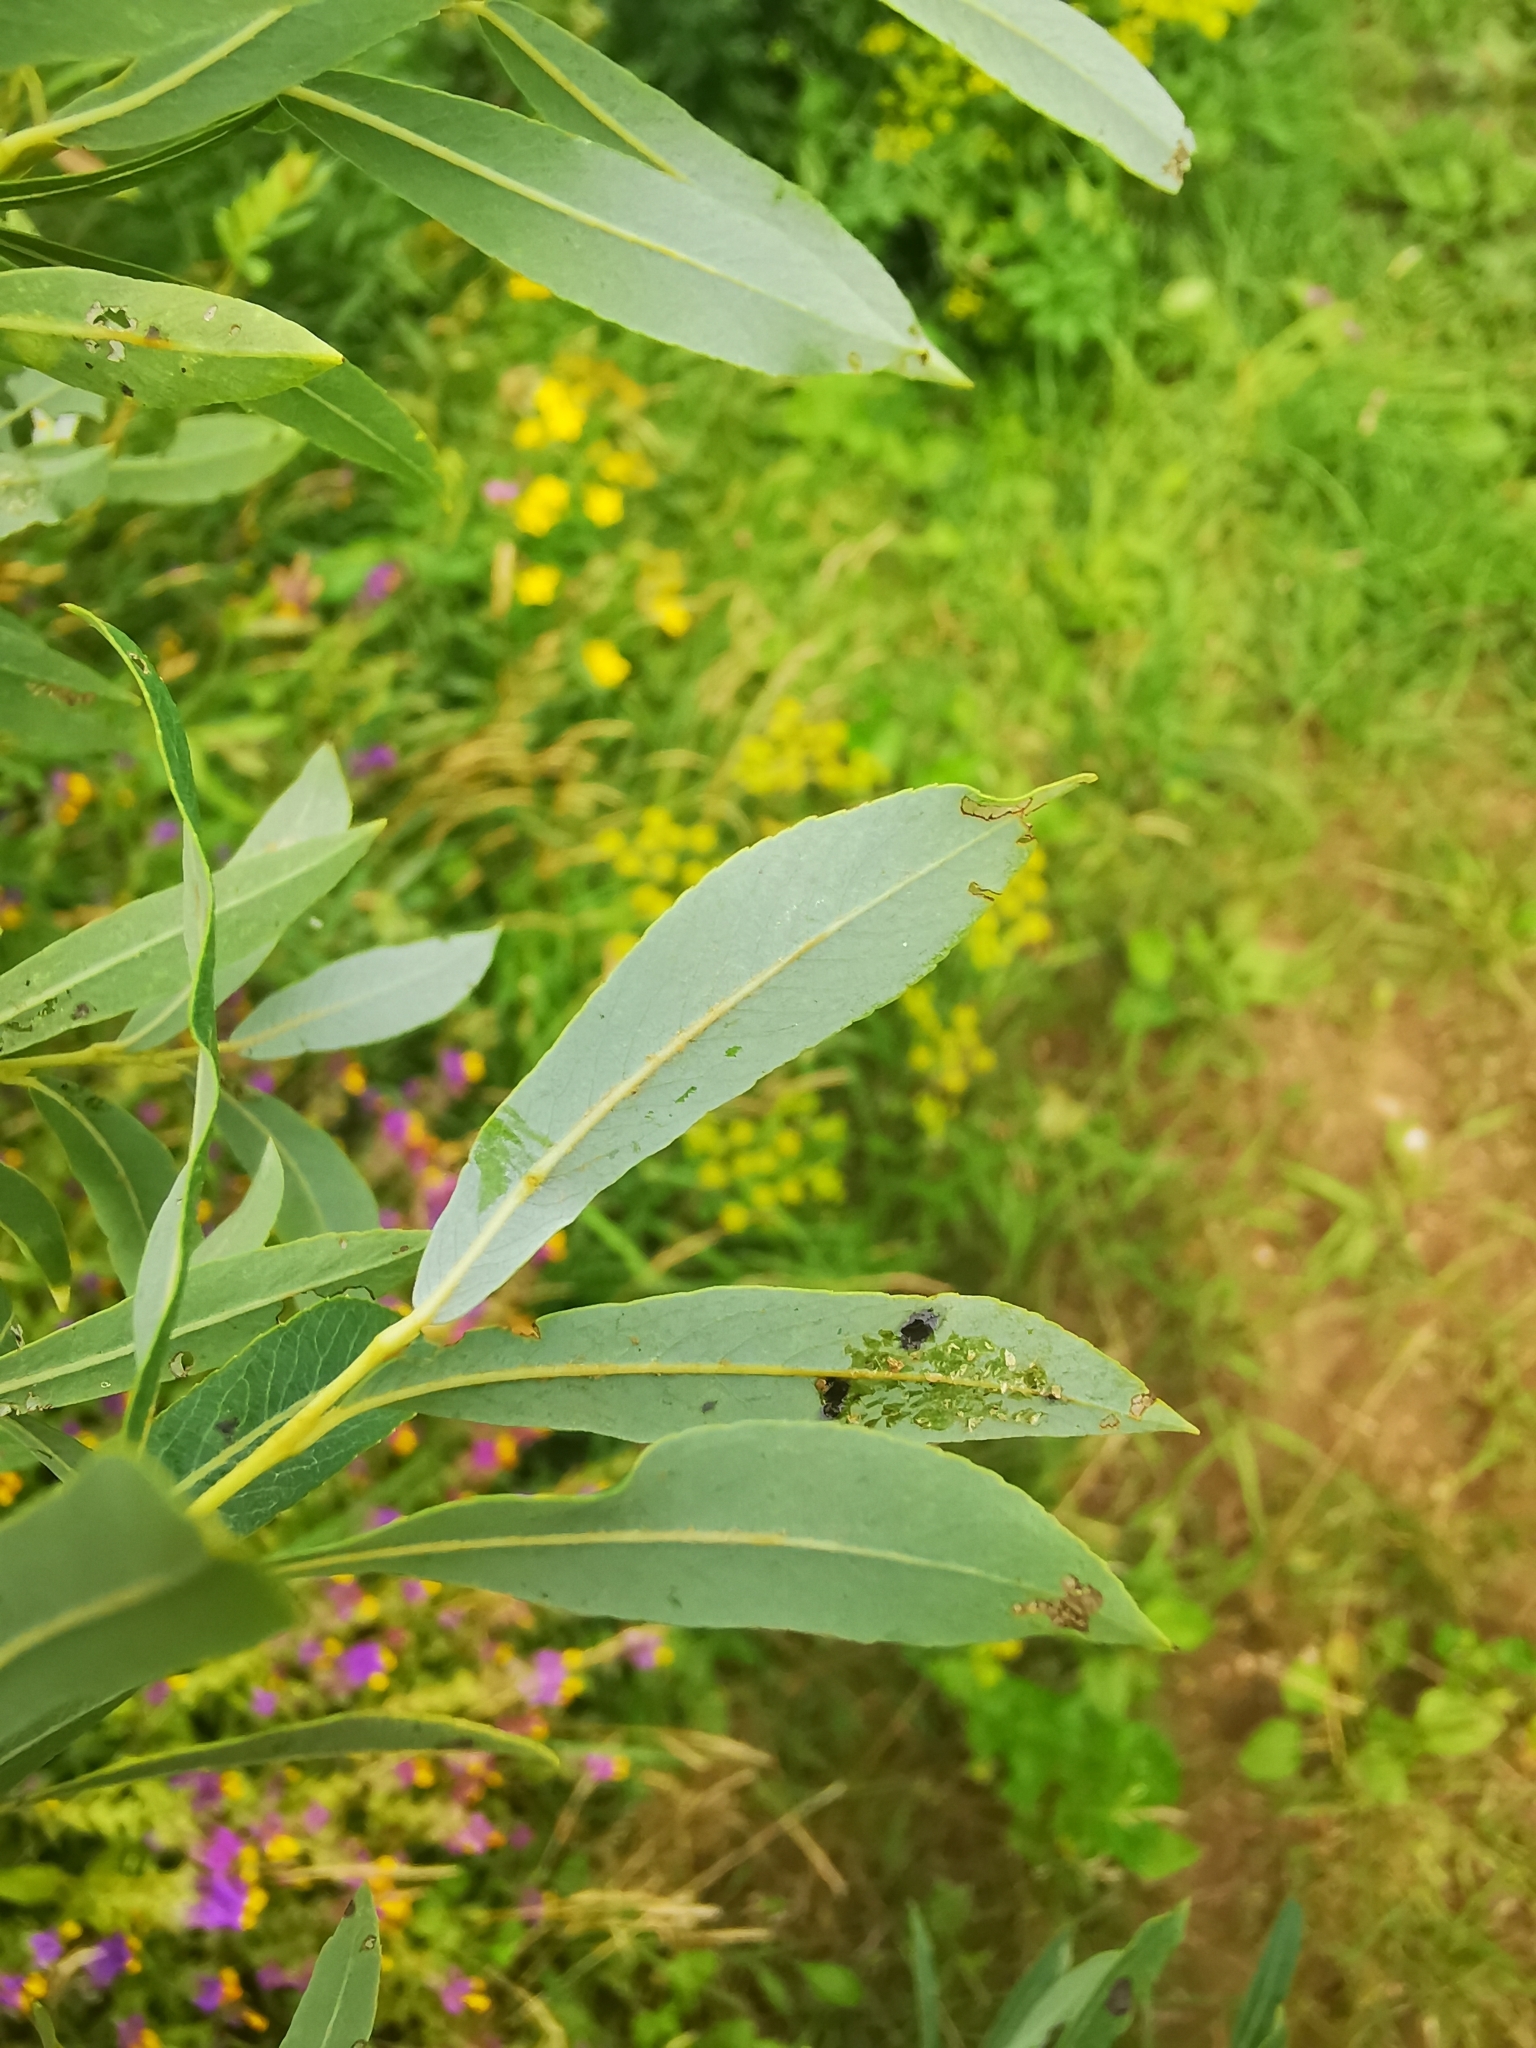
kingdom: Plantae
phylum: Tracheophyta
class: Magnoliopsida
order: Malpighiales
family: Salicaceae
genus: Salix
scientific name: Salix purpurea
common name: Purple willow
